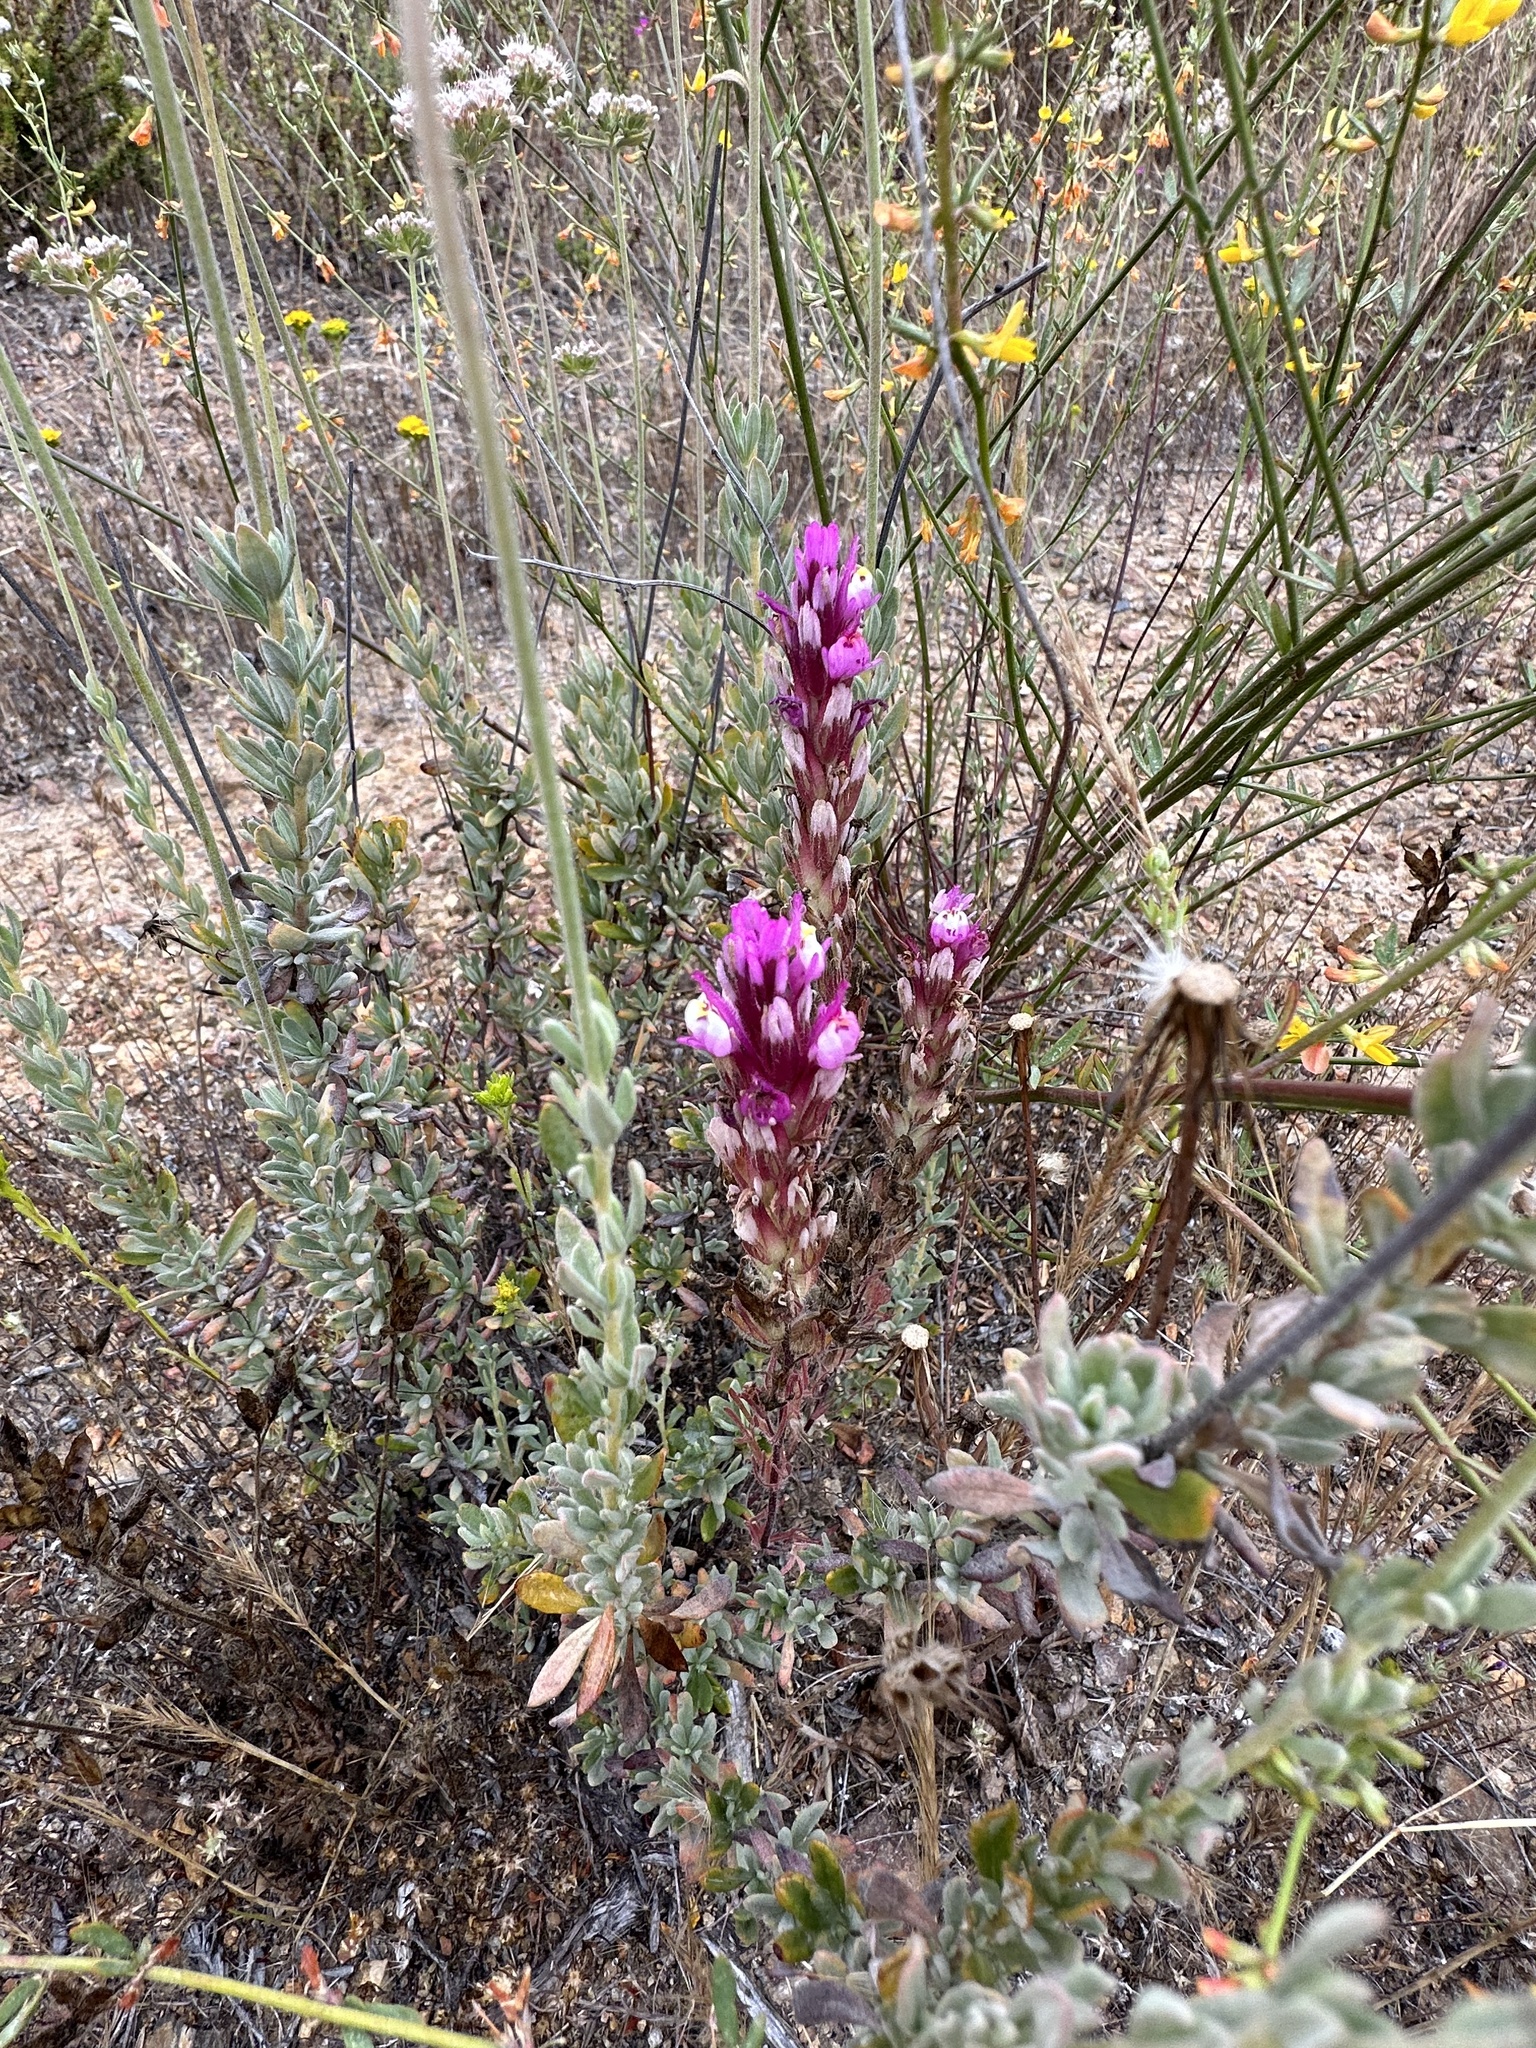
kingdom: Plantae
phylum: Tracheophyta
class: Magnoliopsida
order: Lamiales
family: Orobanchaceae
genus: Castilleja
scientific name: Castilleja exserta
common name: Purple owl-clover
